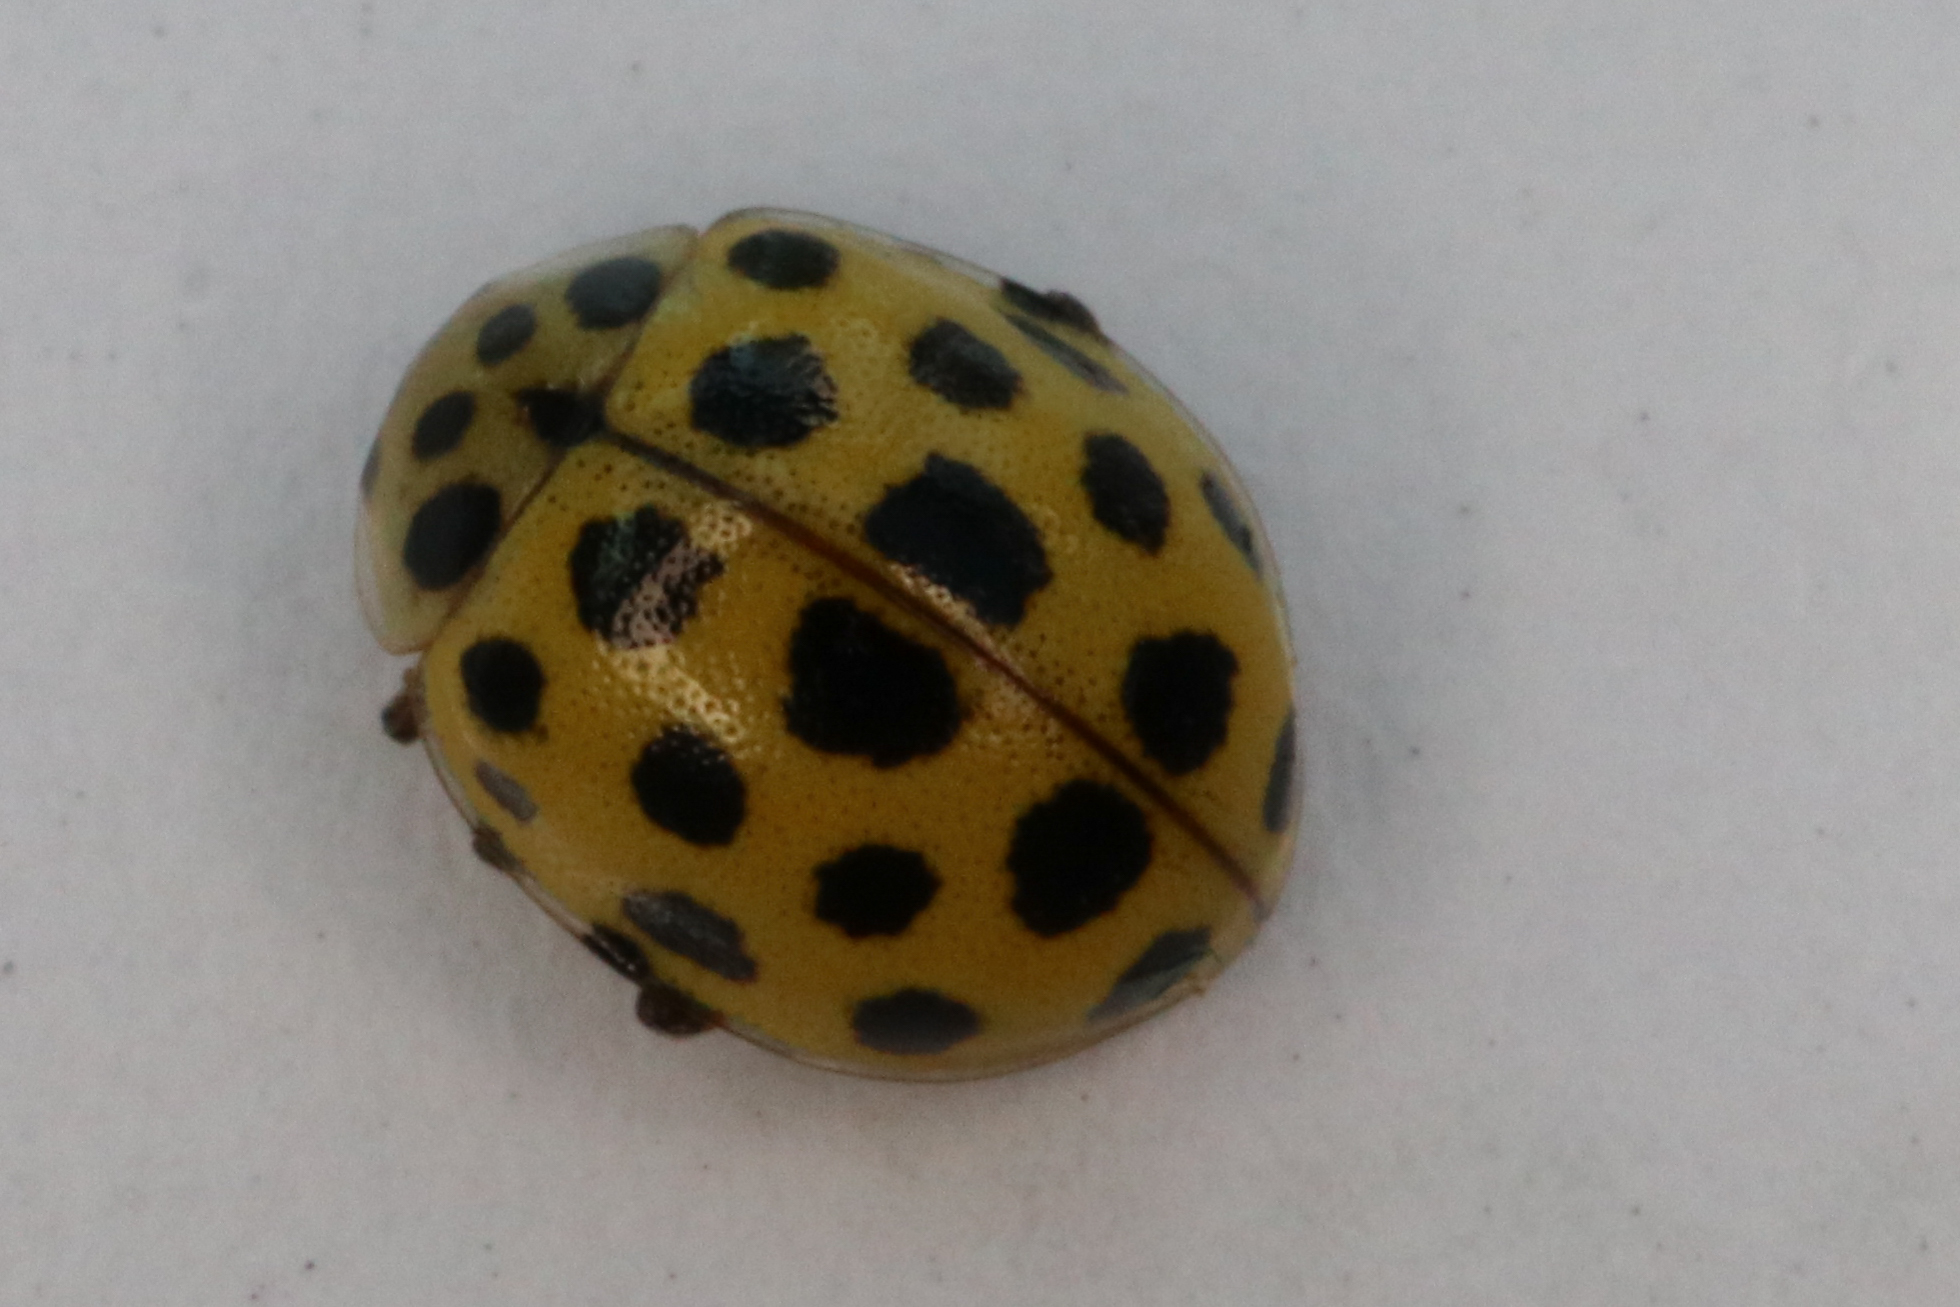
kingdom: Animalia
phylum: Arthropoda
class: Insecta
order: Coleoptera
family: Coccinellidae
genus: Psyllobora
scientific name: Psyllobora vigintiduopunctata
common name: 22-spot ladybird
